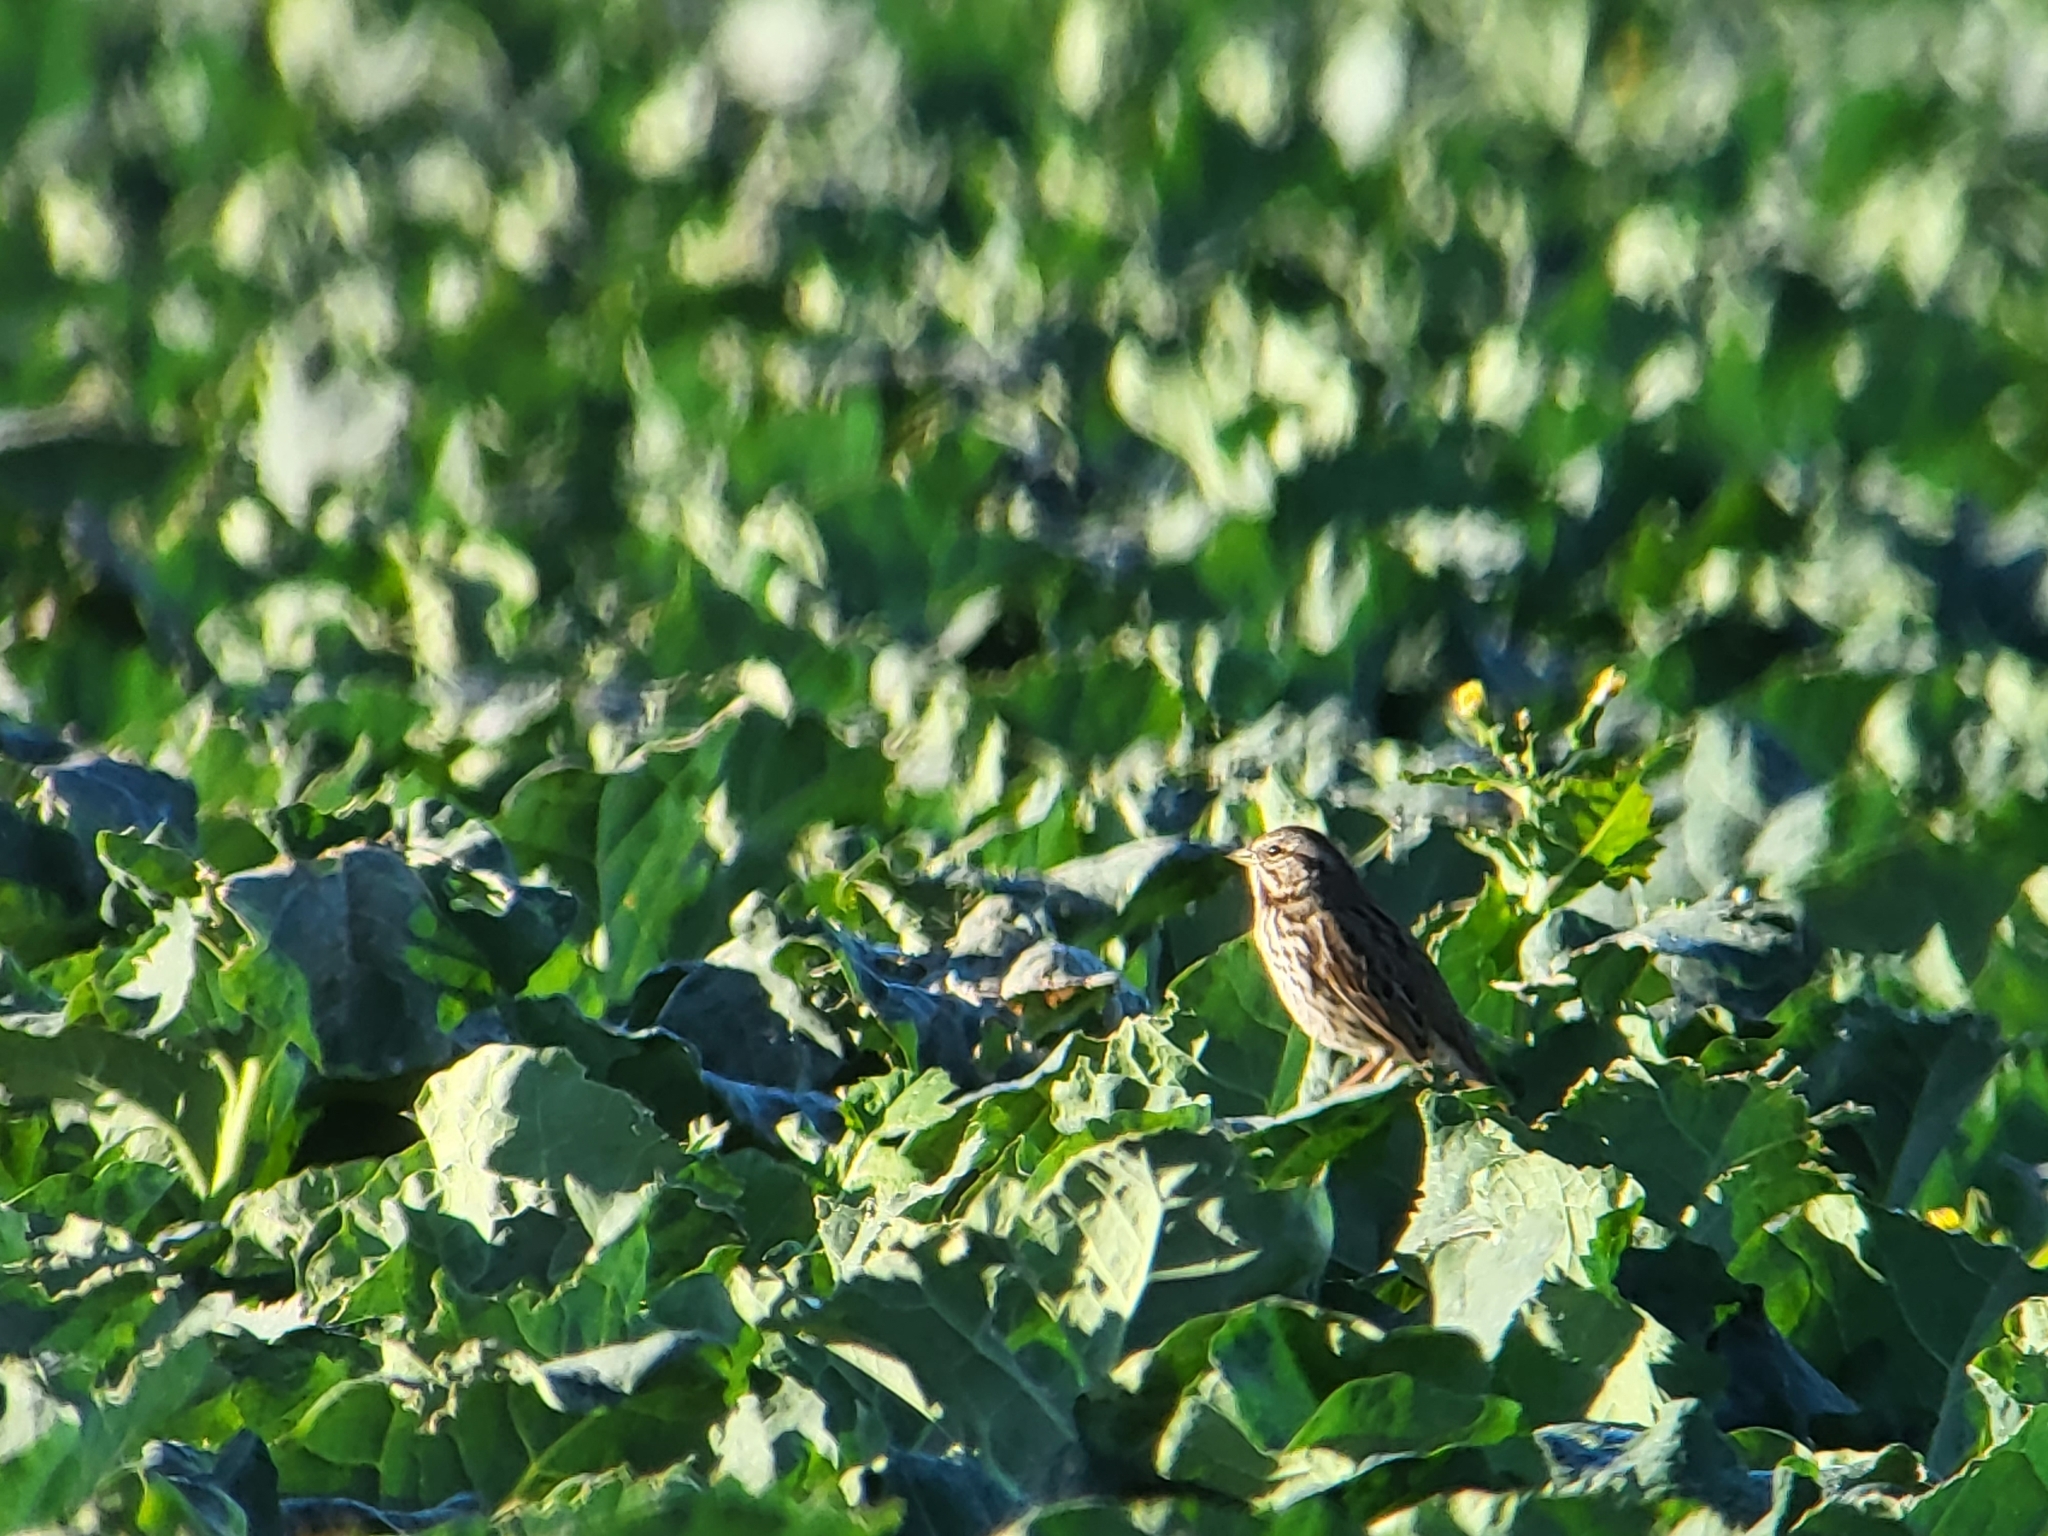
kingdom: Animalia
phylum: Chordata
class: Aves
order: Passeriformes
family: Passerellidae
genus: Melospiza
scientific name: Melospiza melodia
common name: Song sparrow
